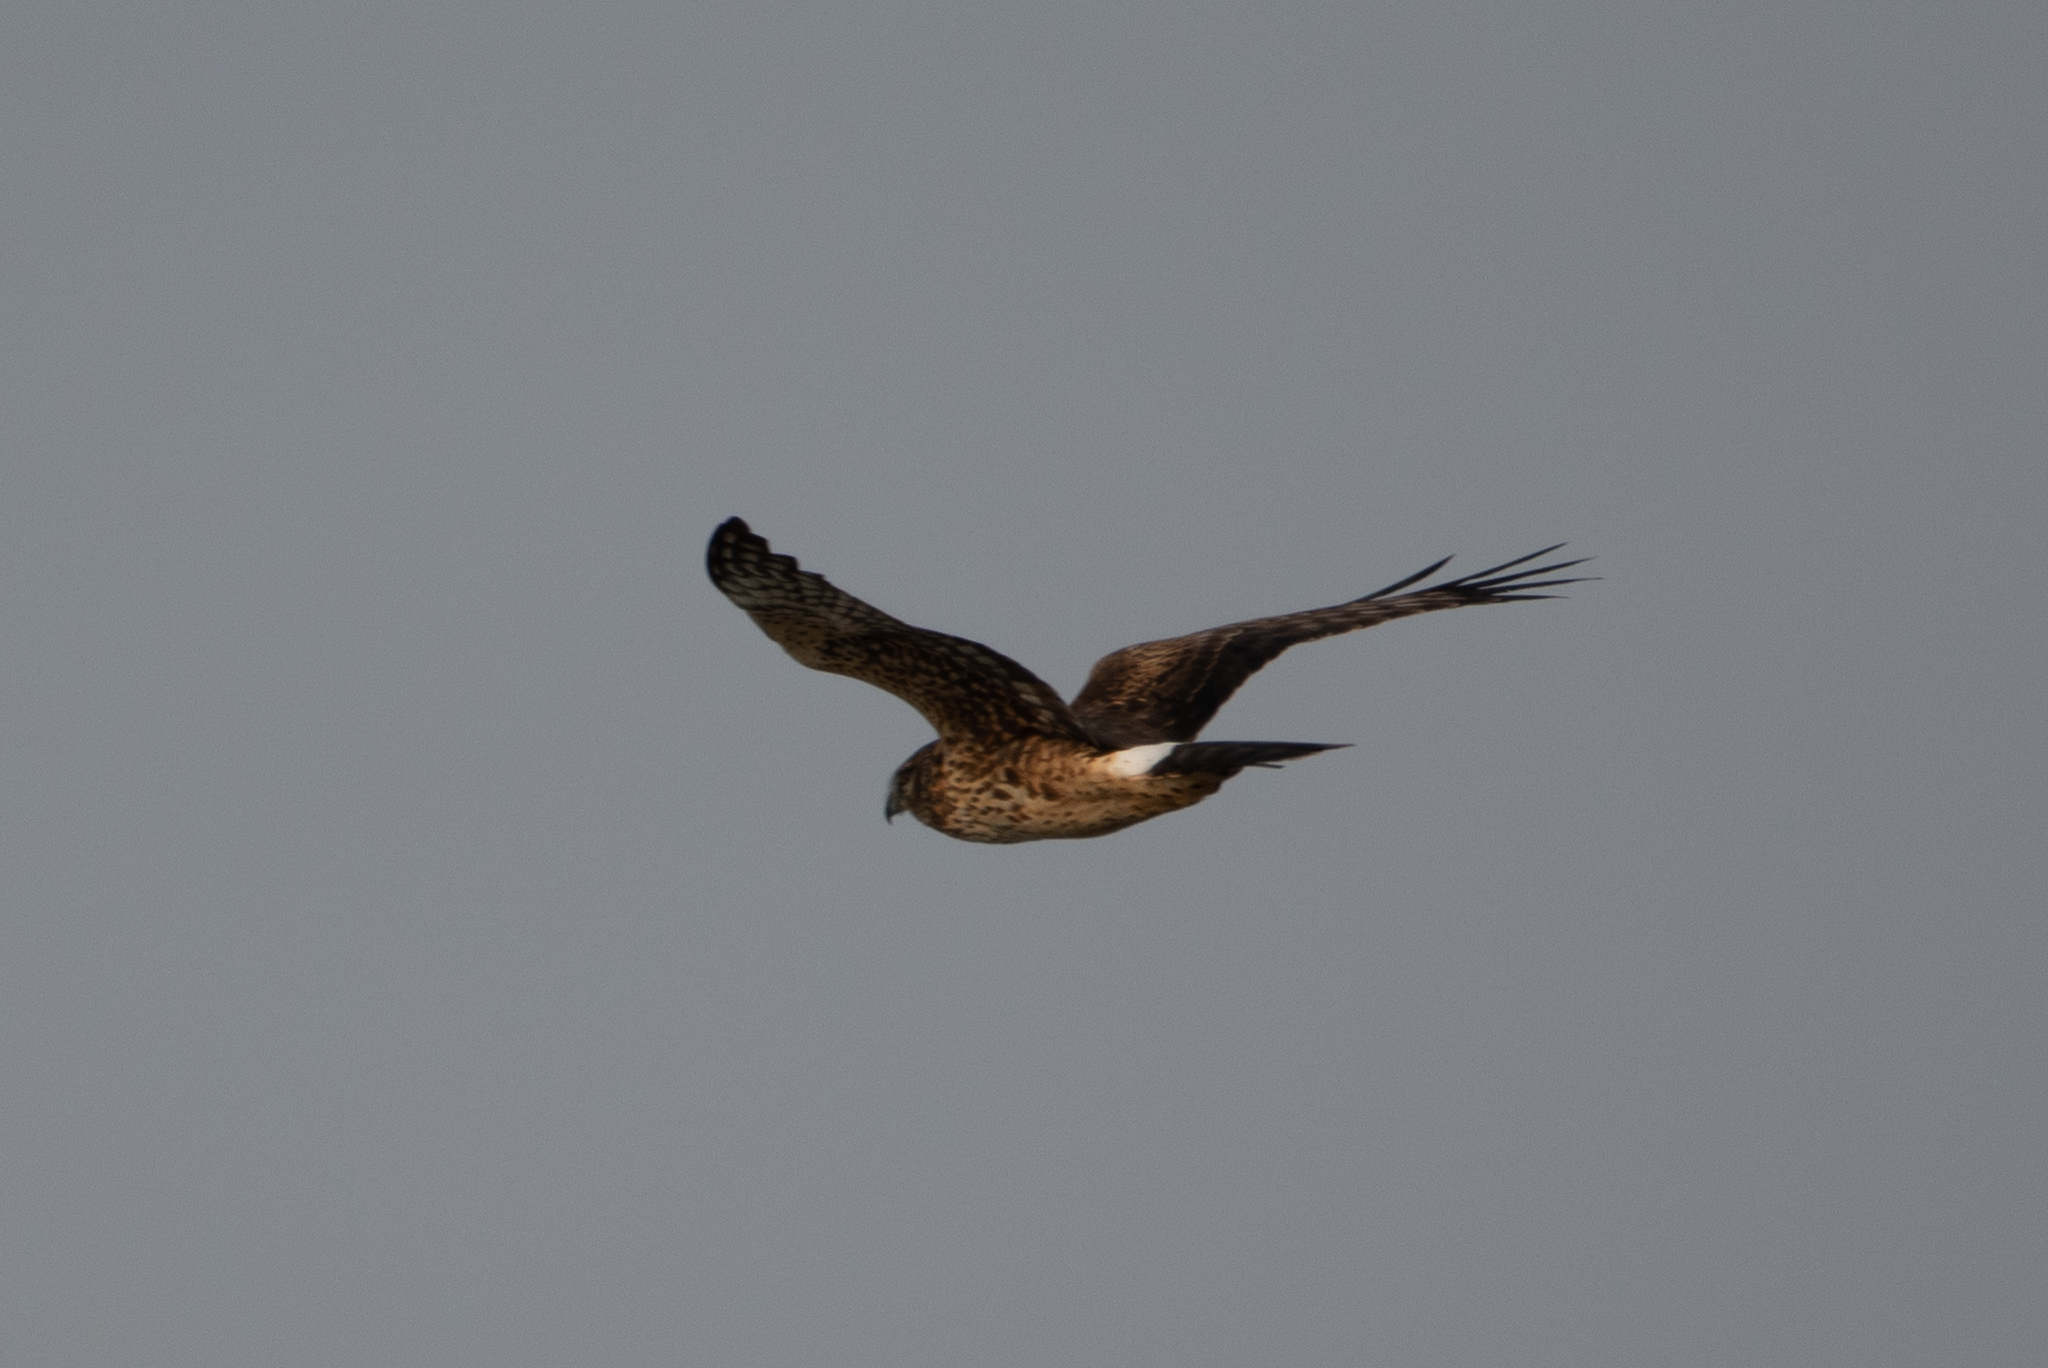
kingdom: Animalia
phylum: Chordata
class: Aves
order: Accipitriformes
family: Accipitridae
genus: Circus
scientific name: Circus cyaneus
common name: Hen harrier
